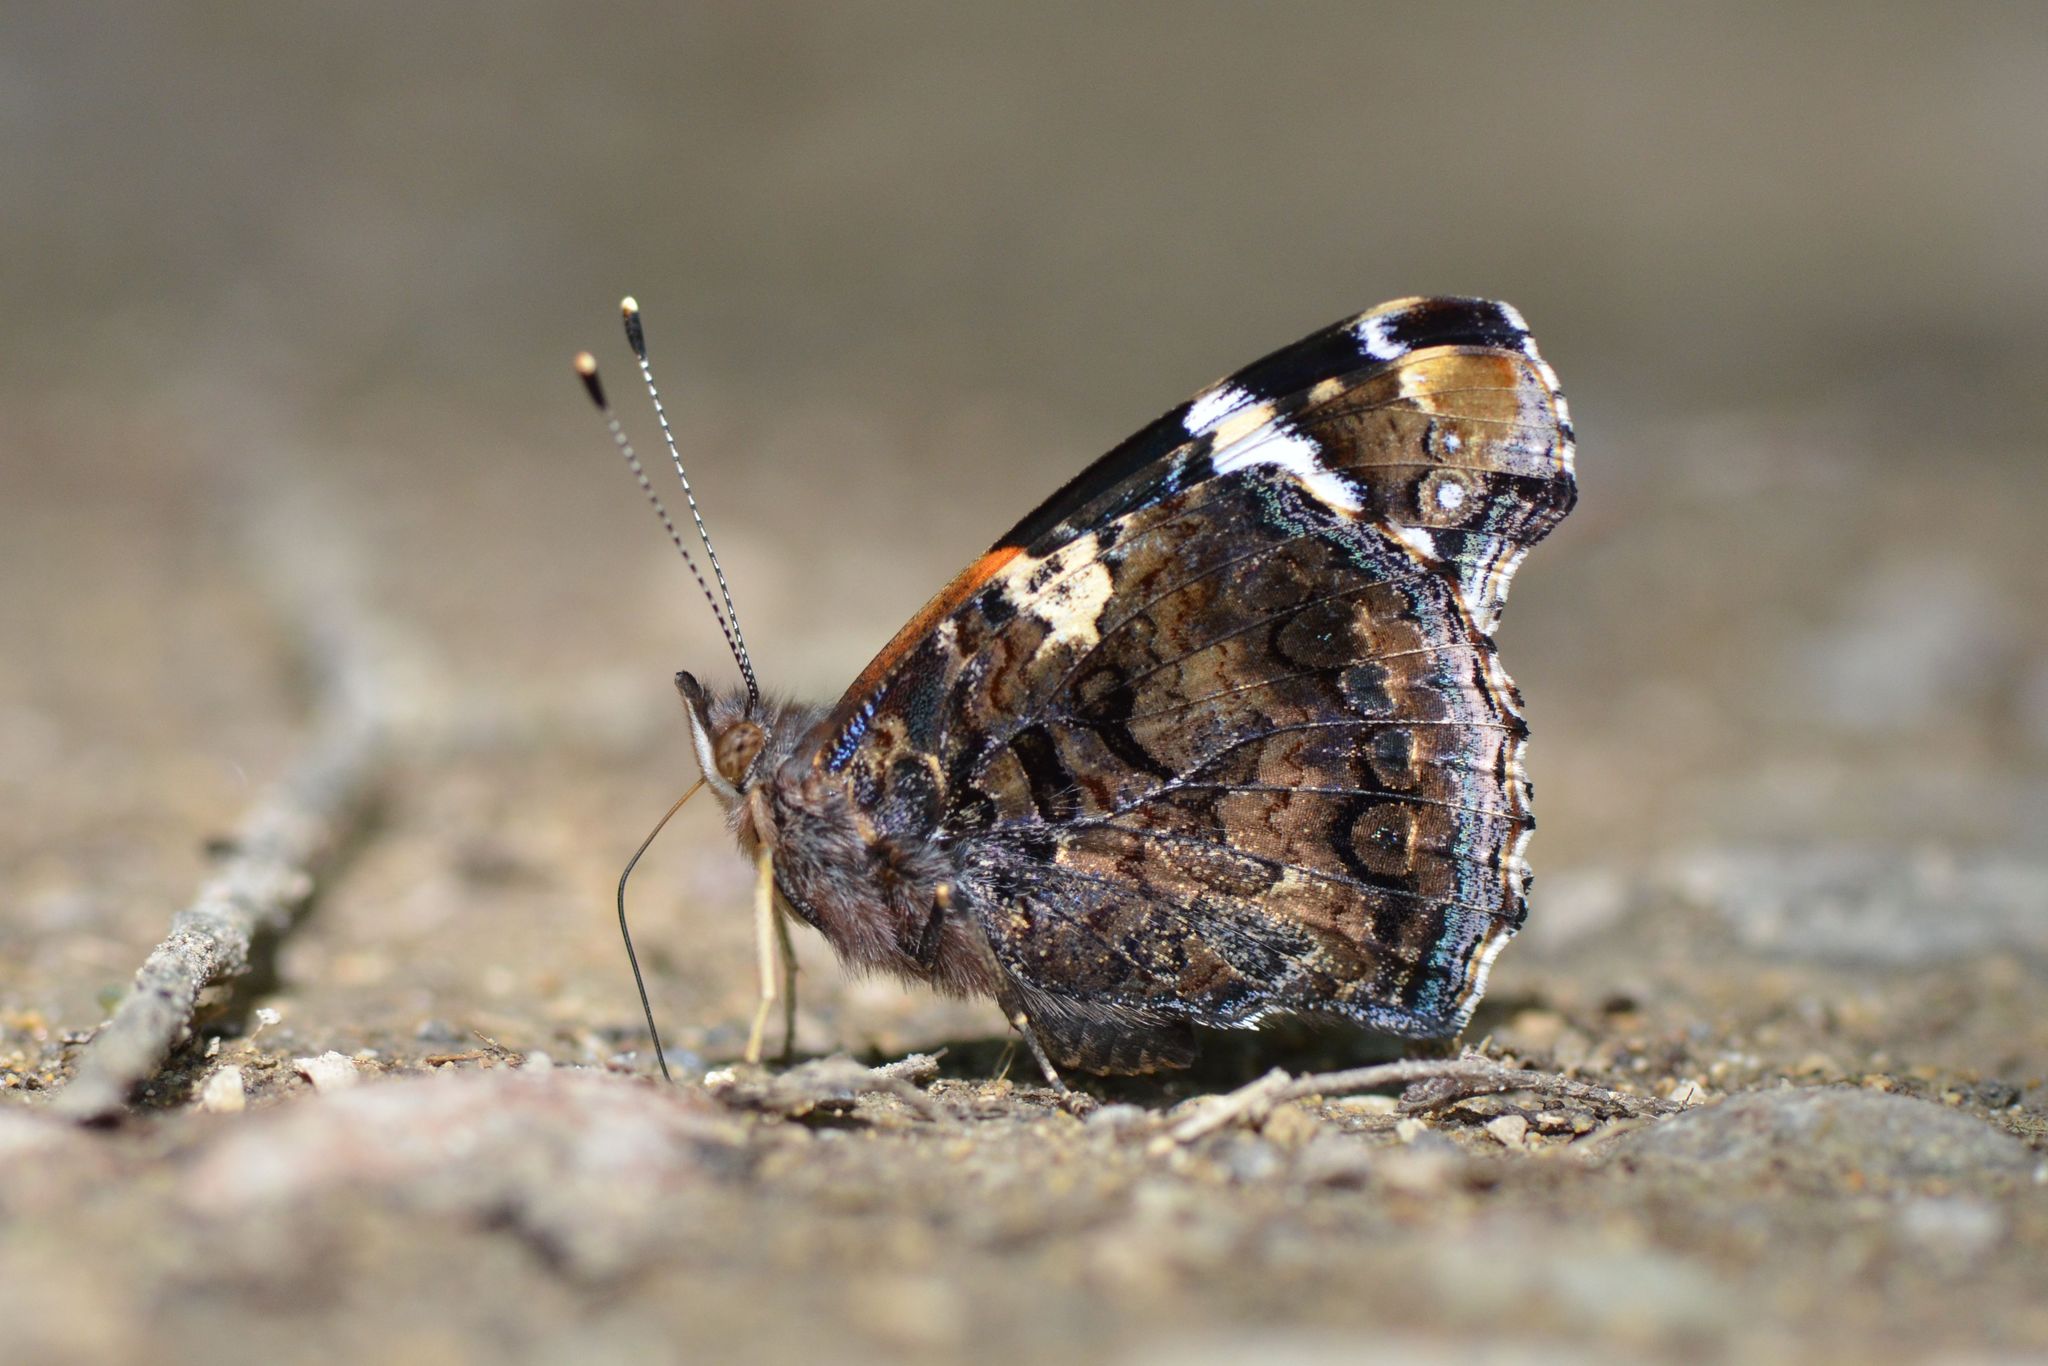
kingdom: Animalia
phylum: Arthropoda
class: Insecta
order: Lepidoptera
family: Nymphalidae
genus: Vanessa
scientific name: Vanessa atalanta
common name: Red admiral
